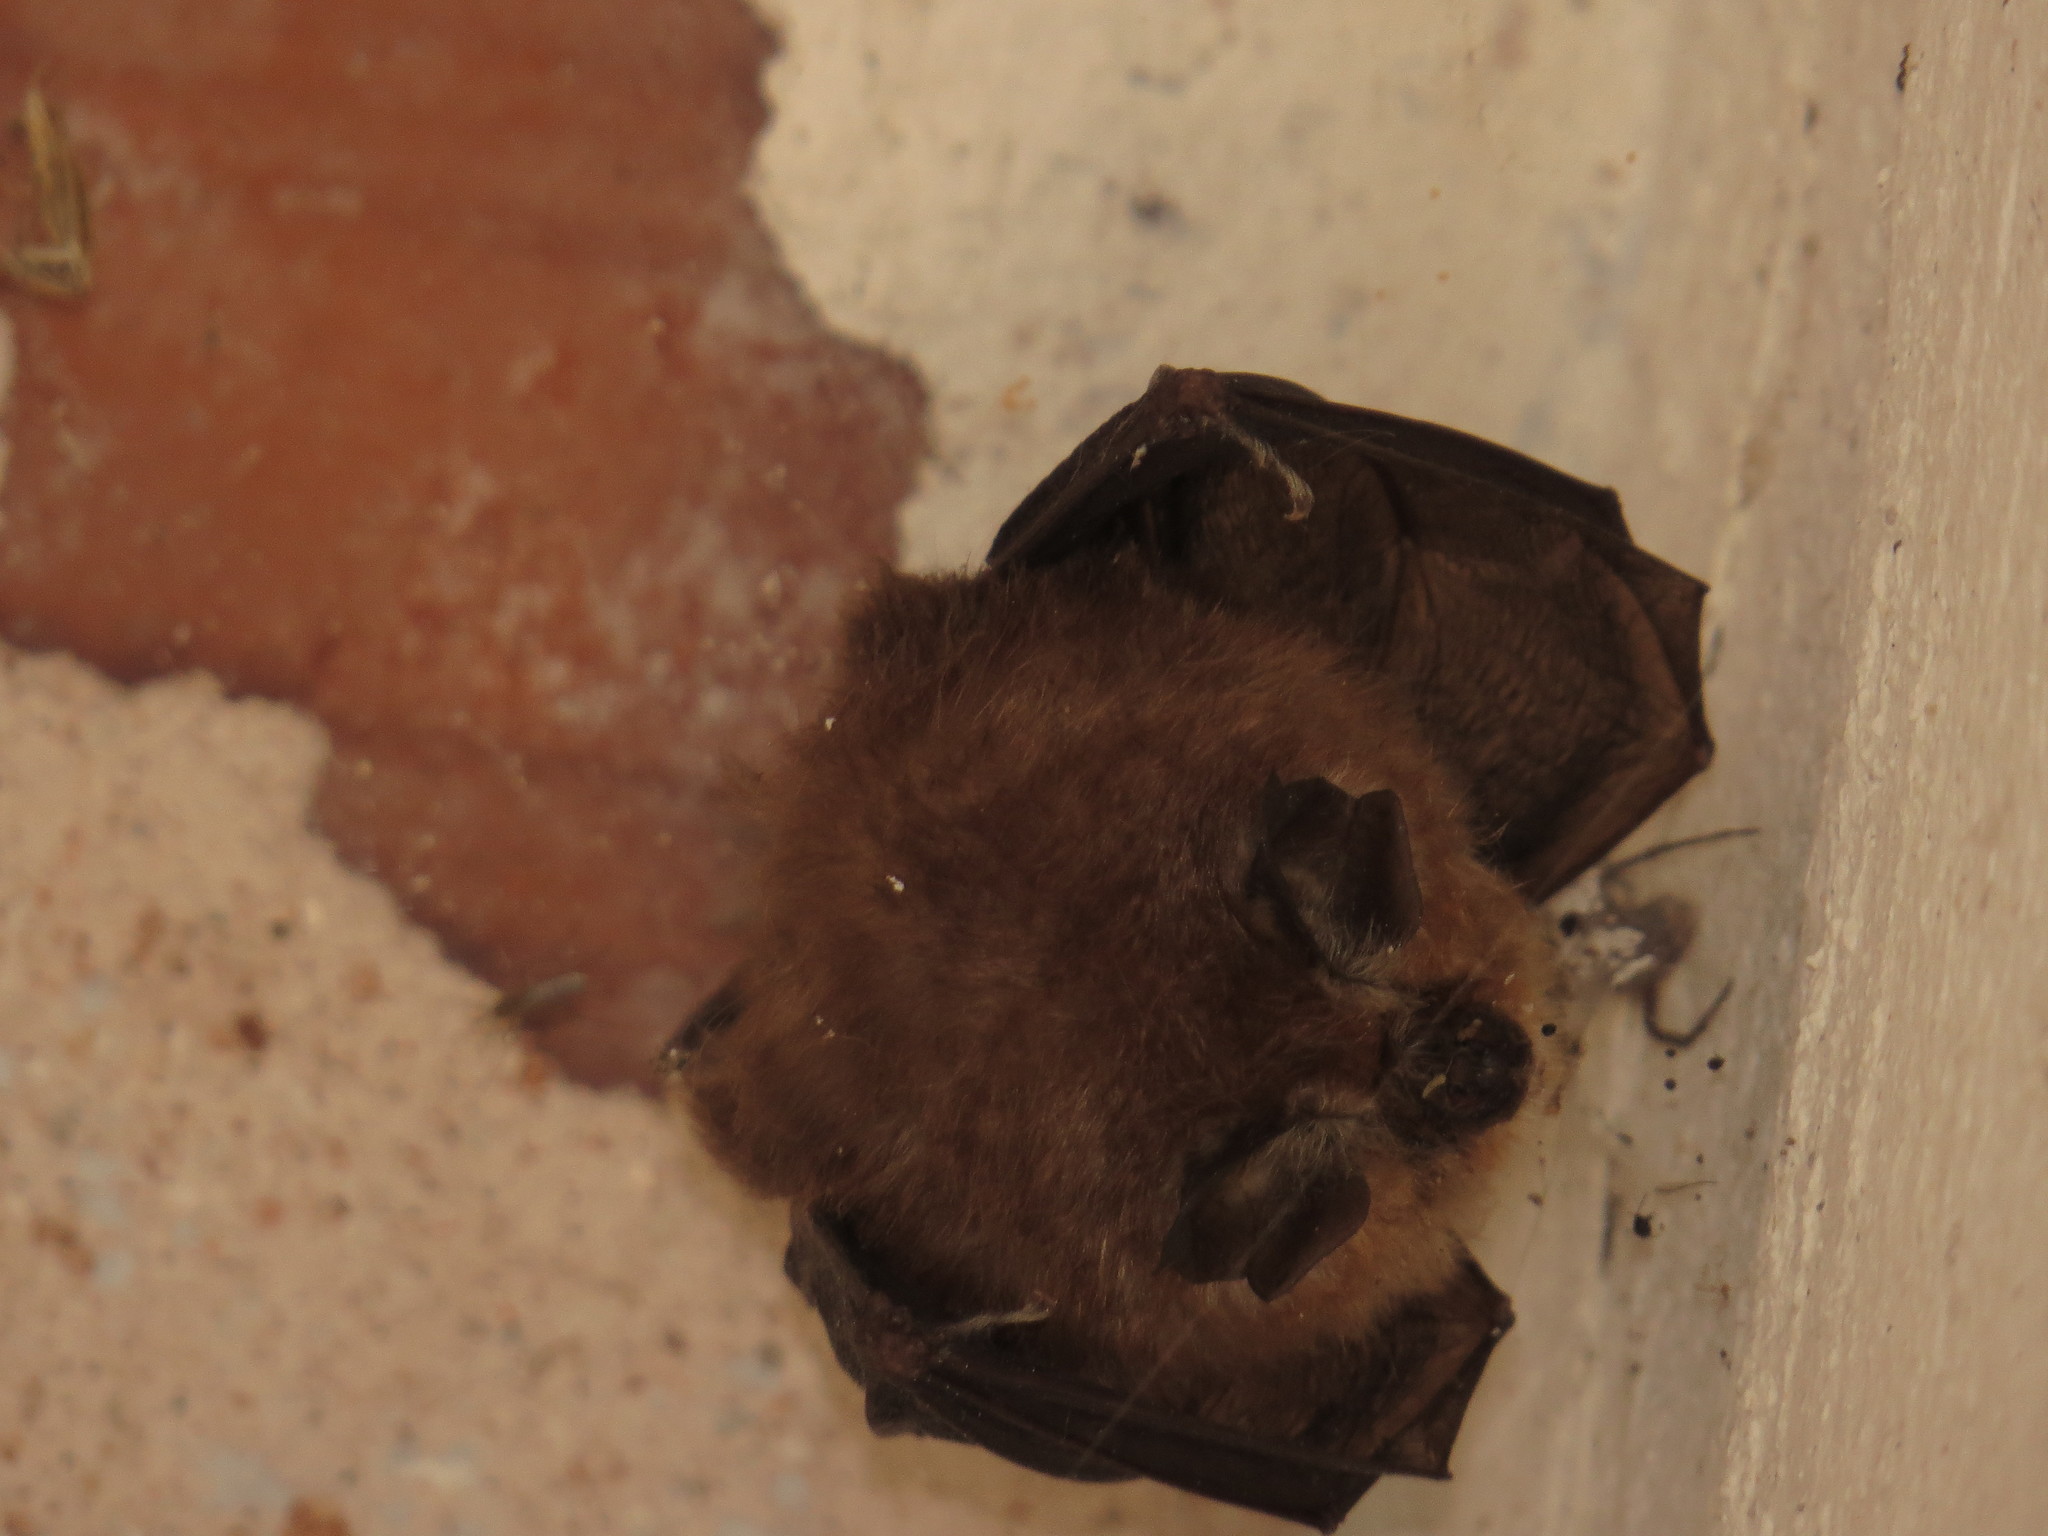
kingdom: Animalia
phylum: Chordata
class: Mammalia
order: Chiroptera
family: Rhinolophidae
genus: Rhinolophus
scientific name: Rhinolophus hipposideros
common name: Lesser horseshoe bat
